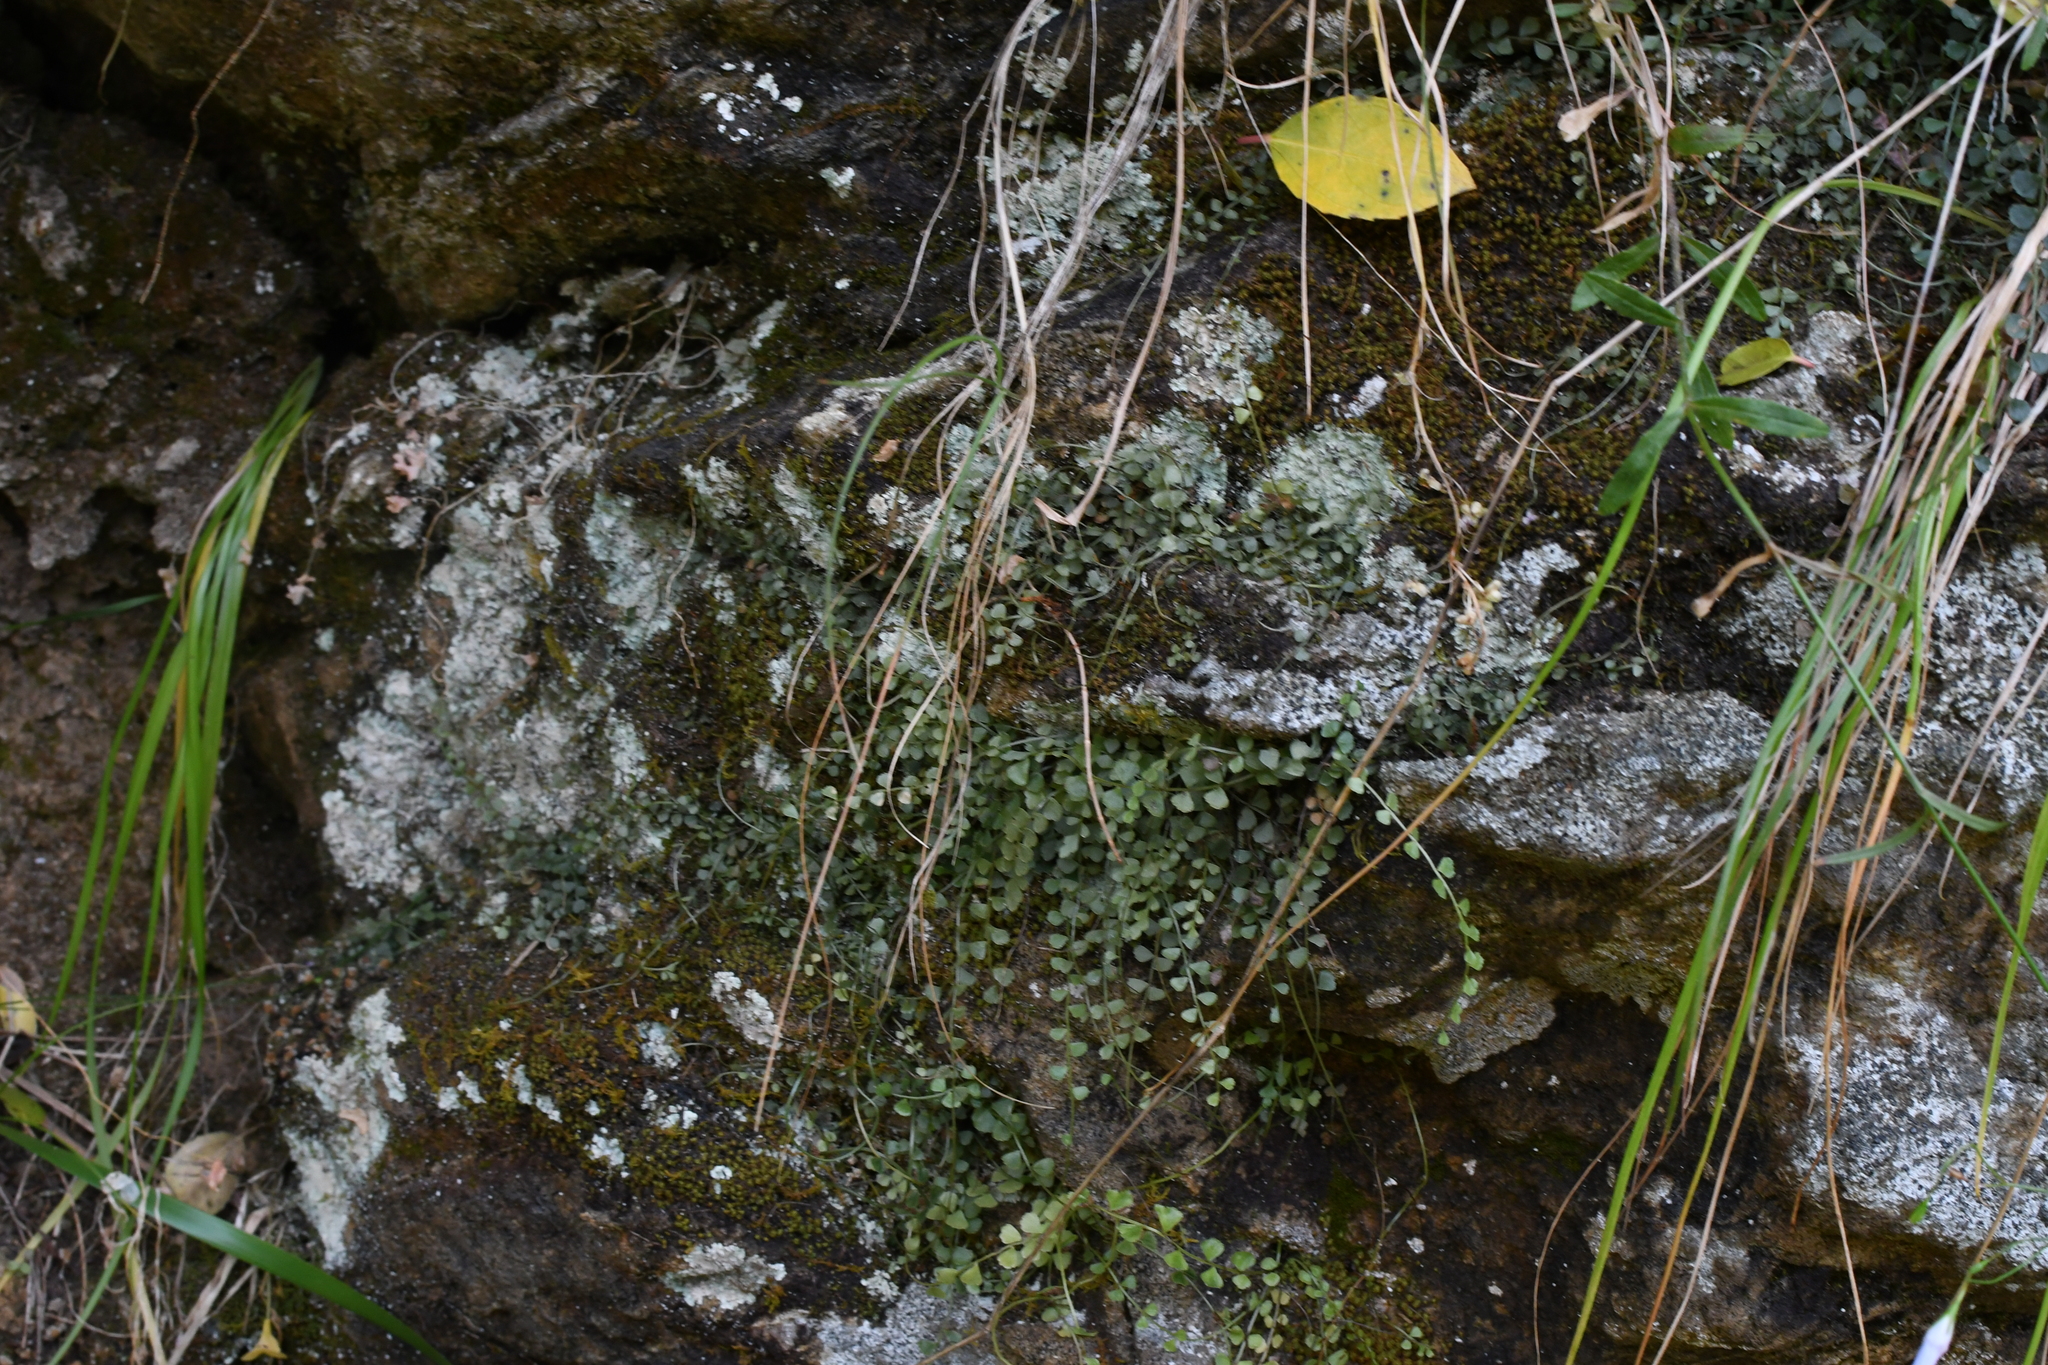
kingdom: Plantae
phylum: Tracheophyta
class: Polypodiopsida
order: Polypodiales
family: Aspleniaceae
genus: Asplenium
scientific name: Asplenium flabellifolium
